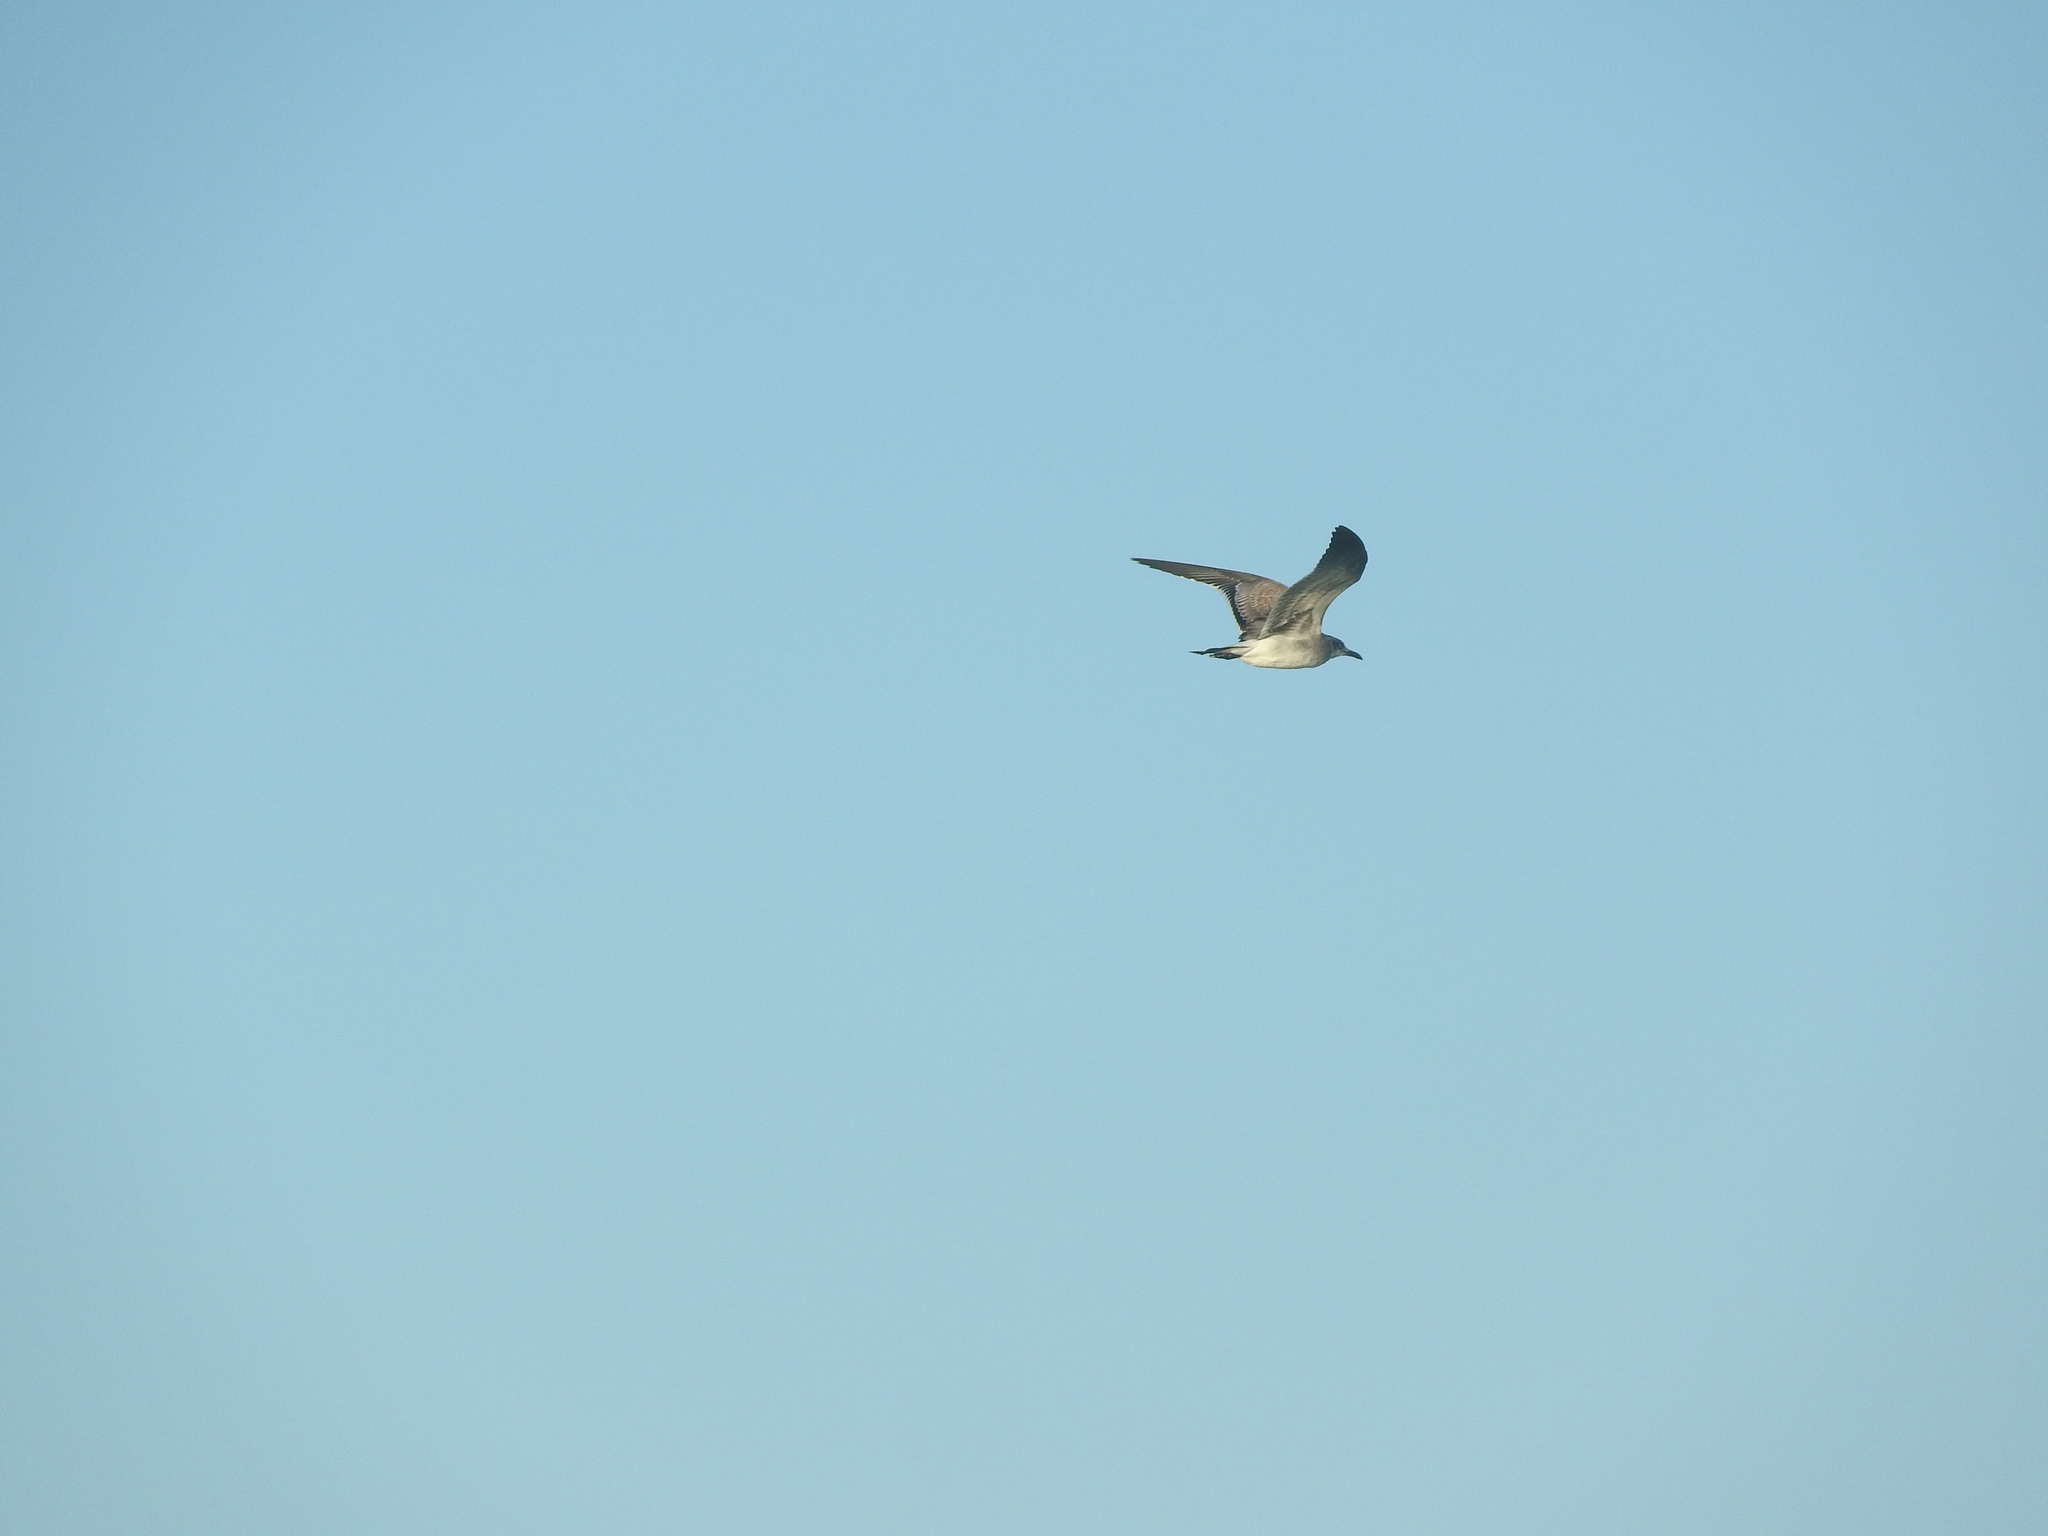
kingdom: Animalia
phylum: Chordata
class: Aves
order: Charadriiformes
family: Laridae
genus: Leucophaeus
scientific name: Leucophaeus atricilla
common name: Laughing gull
